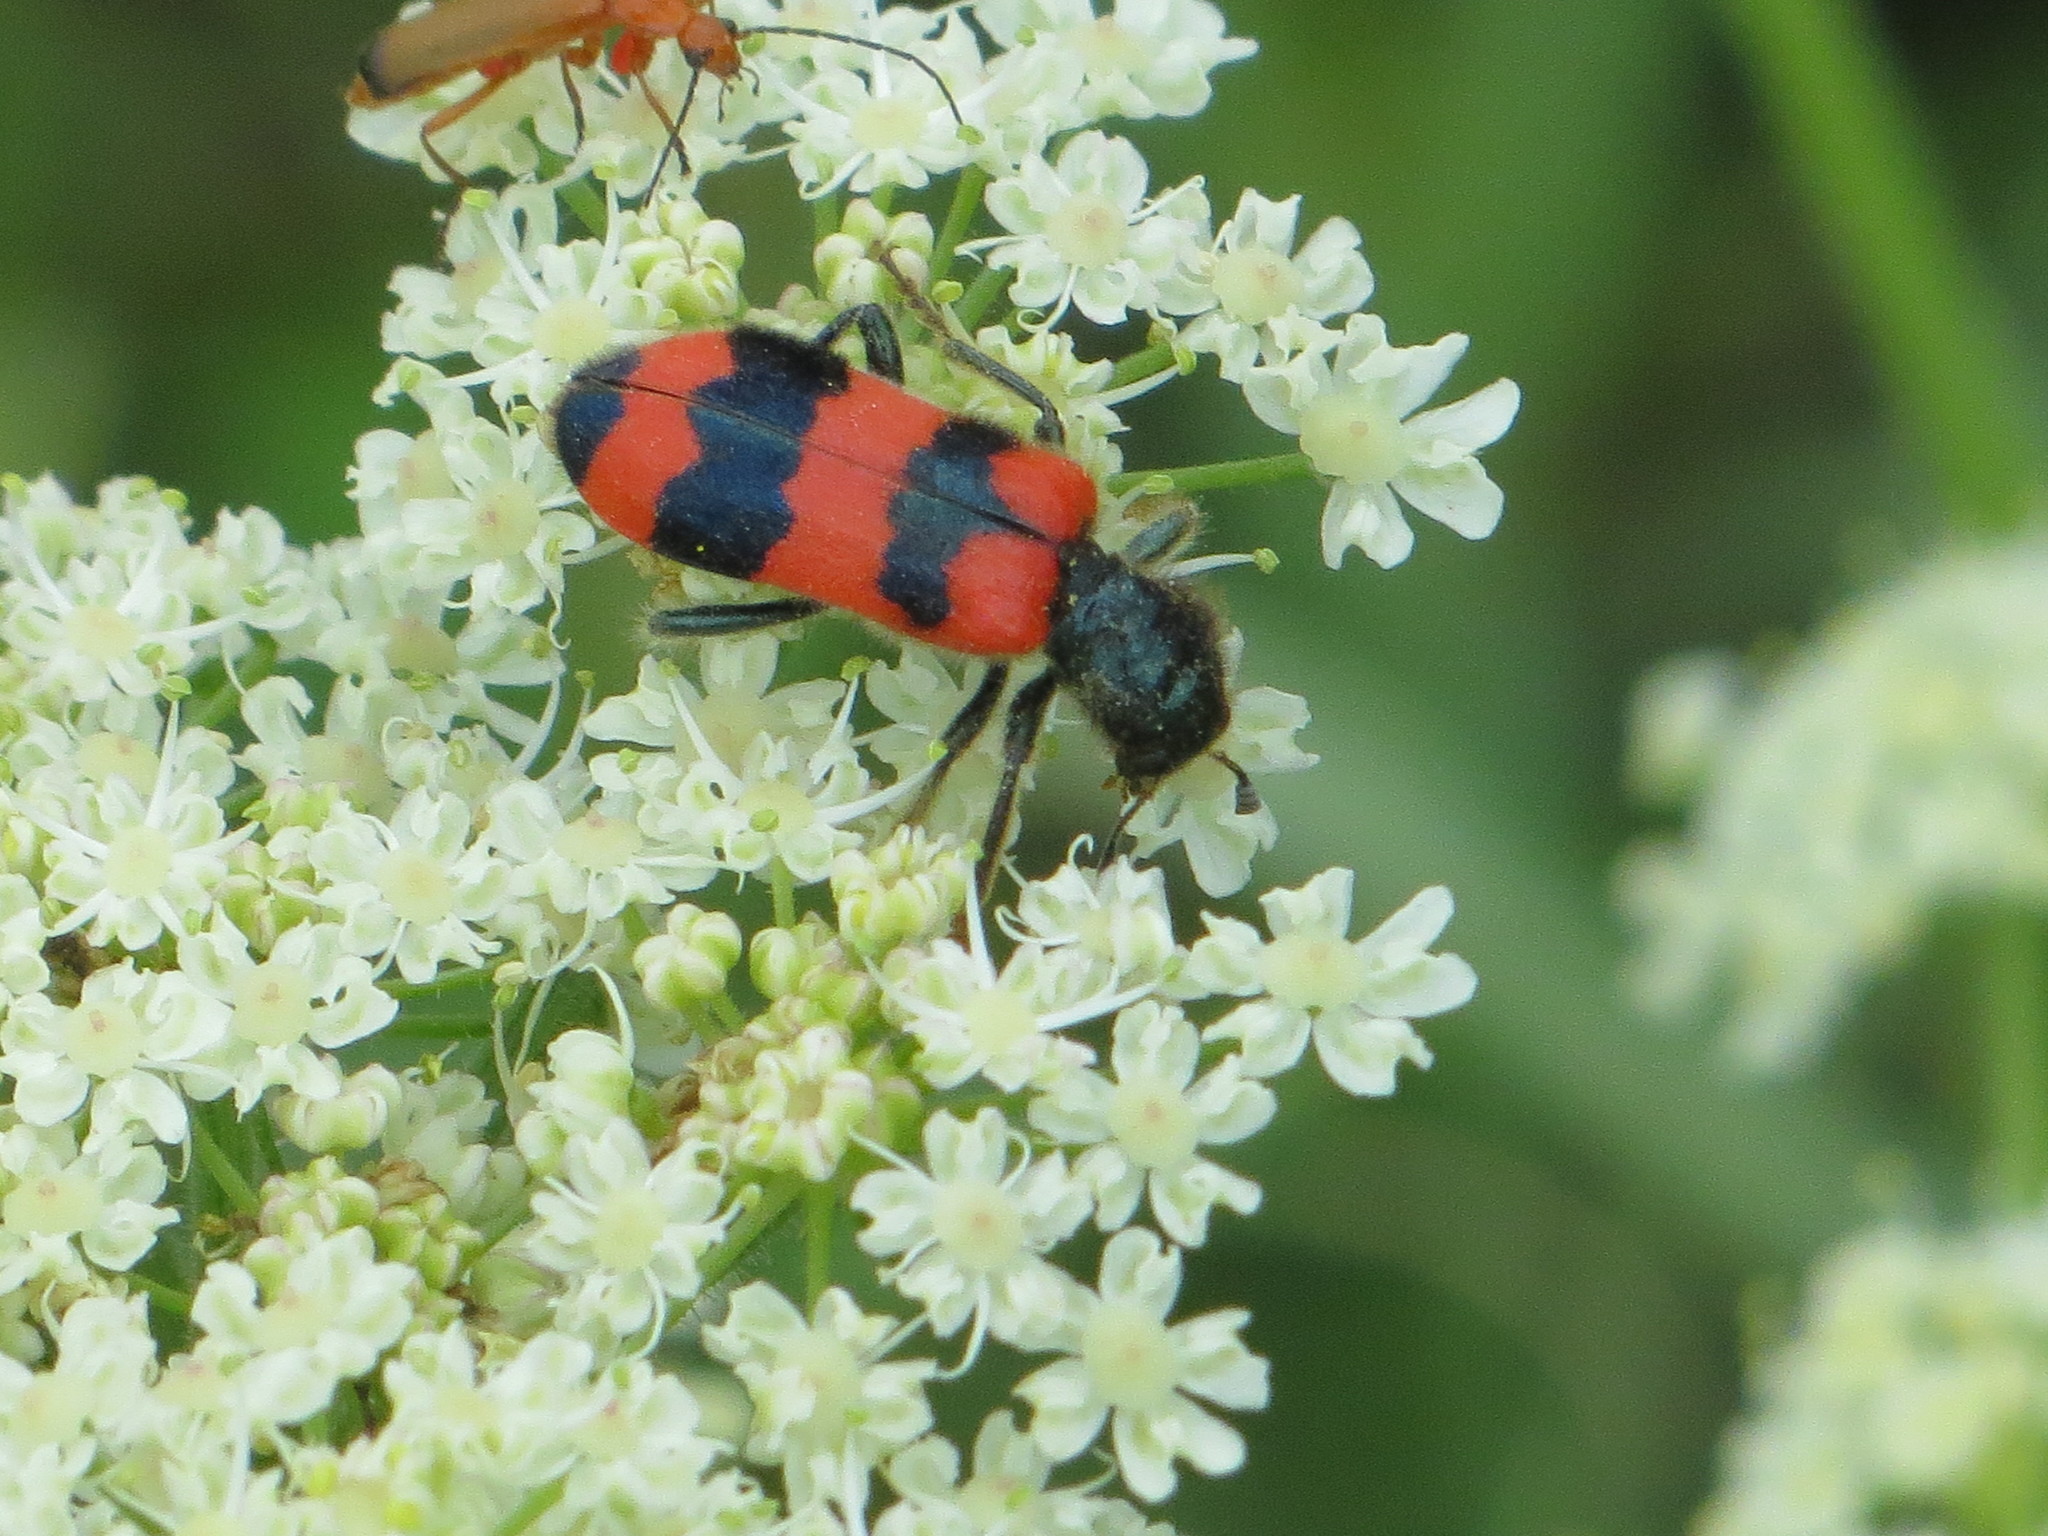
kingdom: Animalia
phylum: Arthropoda
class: Insecta
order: Coleoptera
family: Cleridae
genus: Trichodes
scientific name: Trichodes apiarius
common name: Bee-eating beetle
